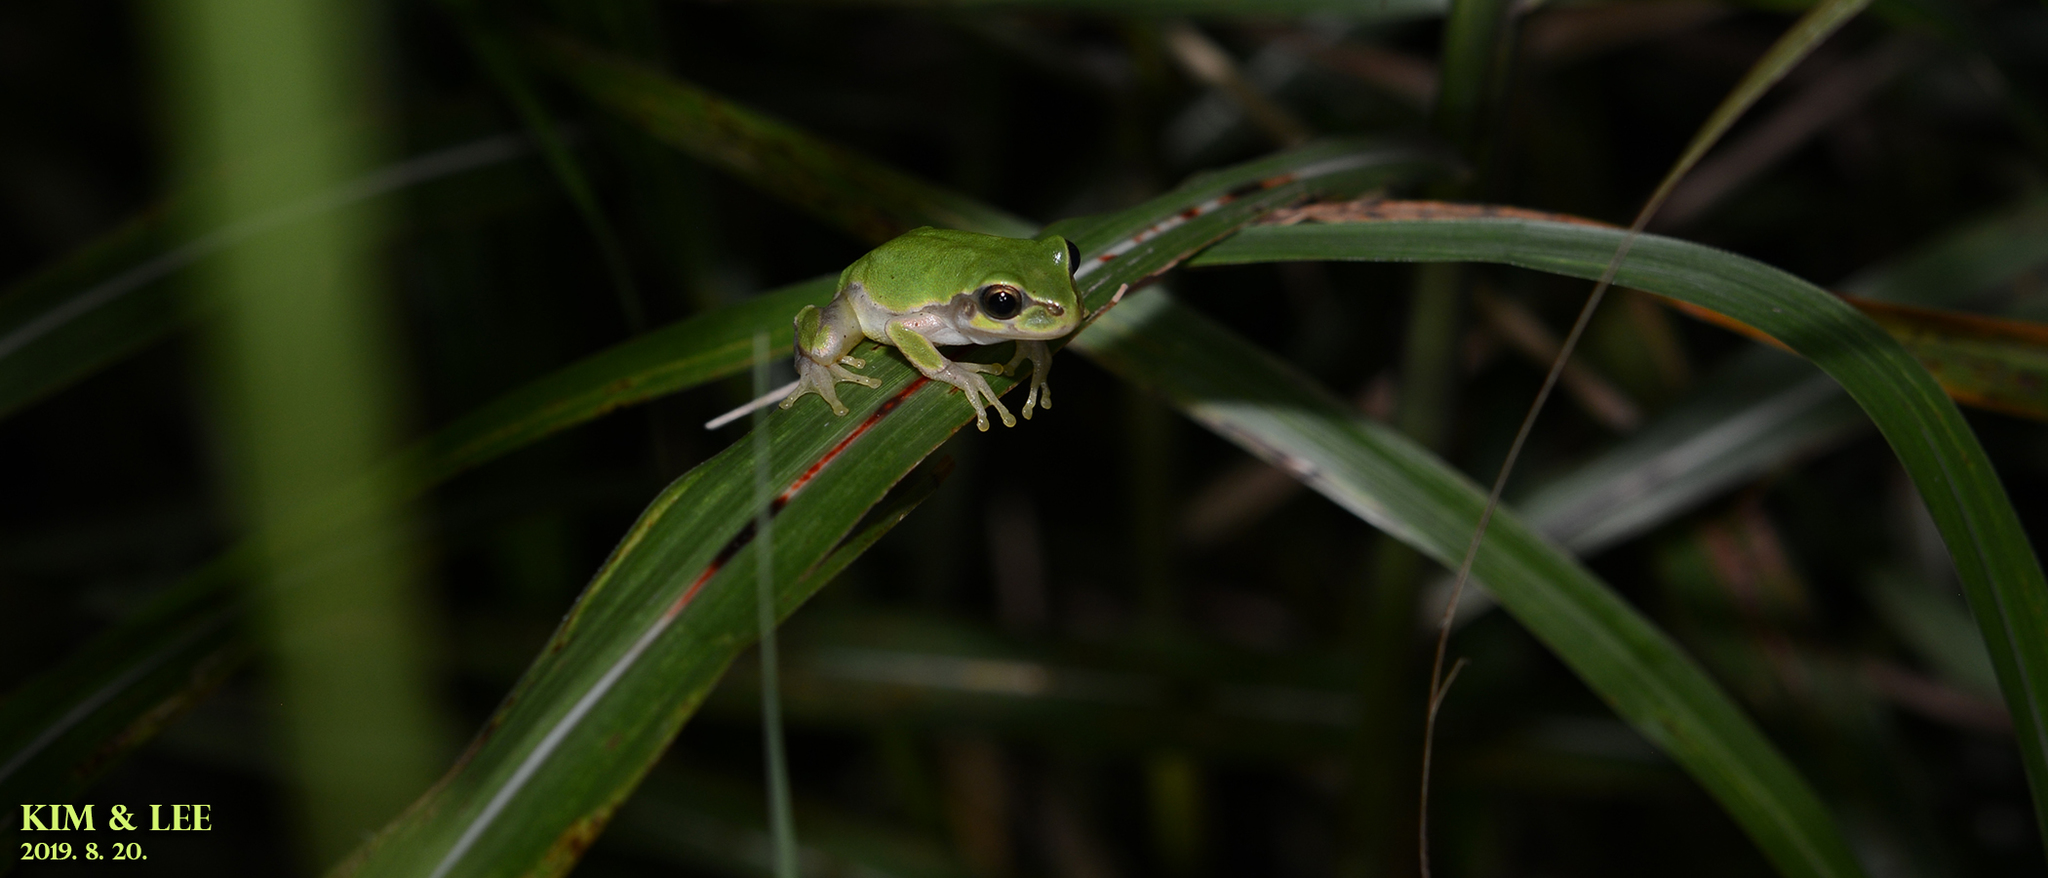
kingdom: Animalia
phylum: Chordata
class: Amphibia
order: Anura
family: Hylidae
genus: Dryophytes
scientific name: Dryophytes japonicus
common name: Japanese treefrog
